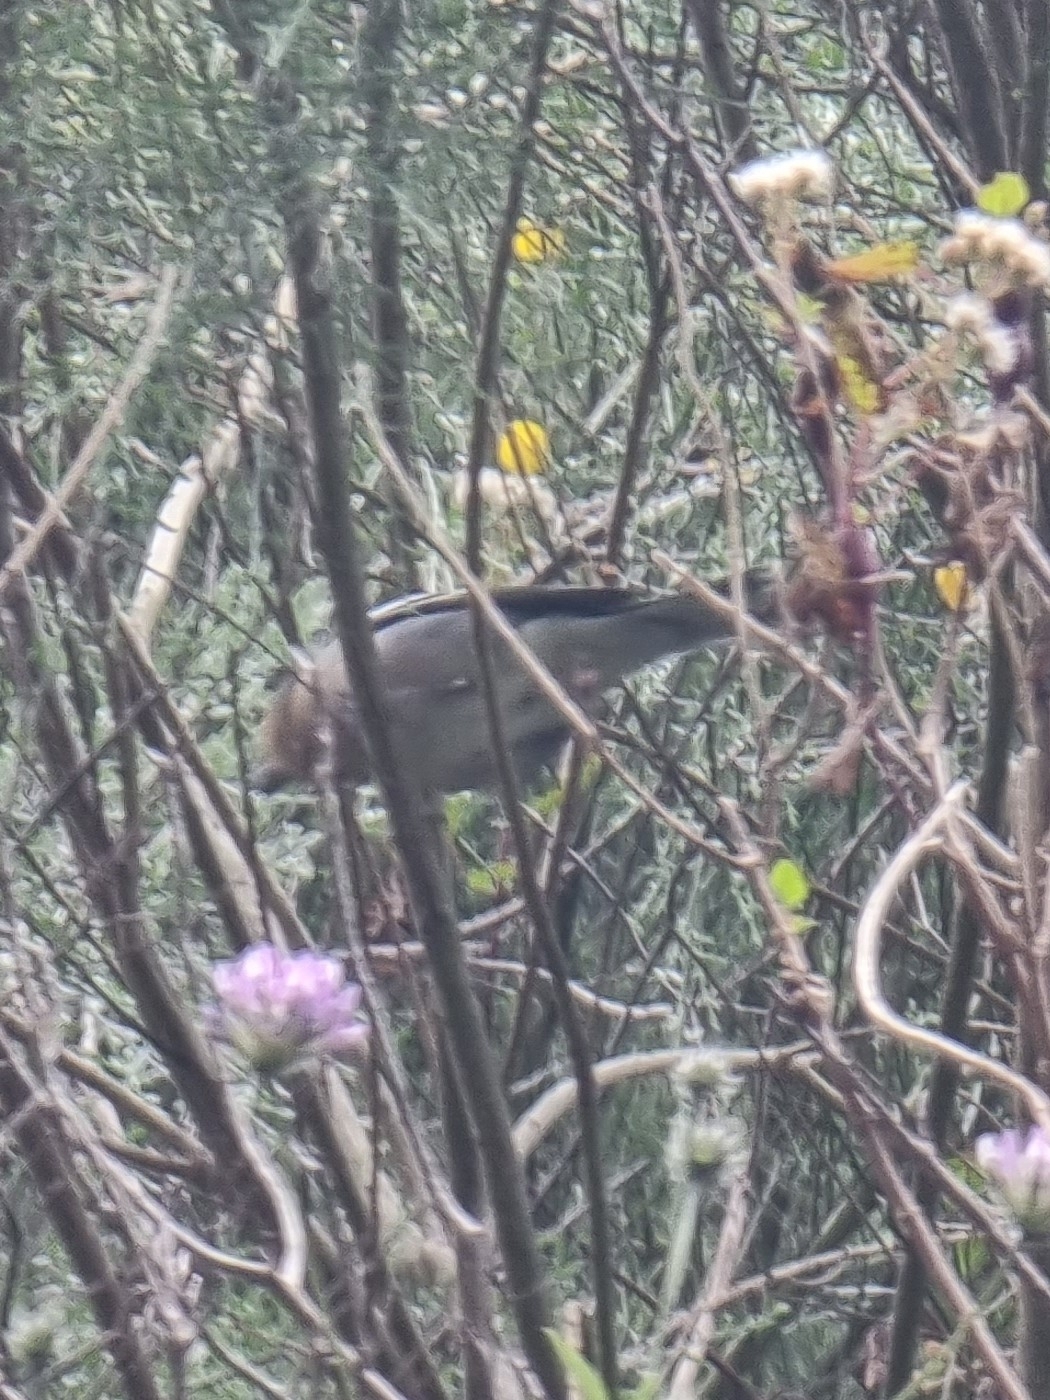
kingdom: Animalia
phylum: Chordata
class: Aves
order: Passeriformes
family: Fringillidae
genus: Fringilla
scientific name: Fringilla maderensis
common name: Madeira chaffinch
